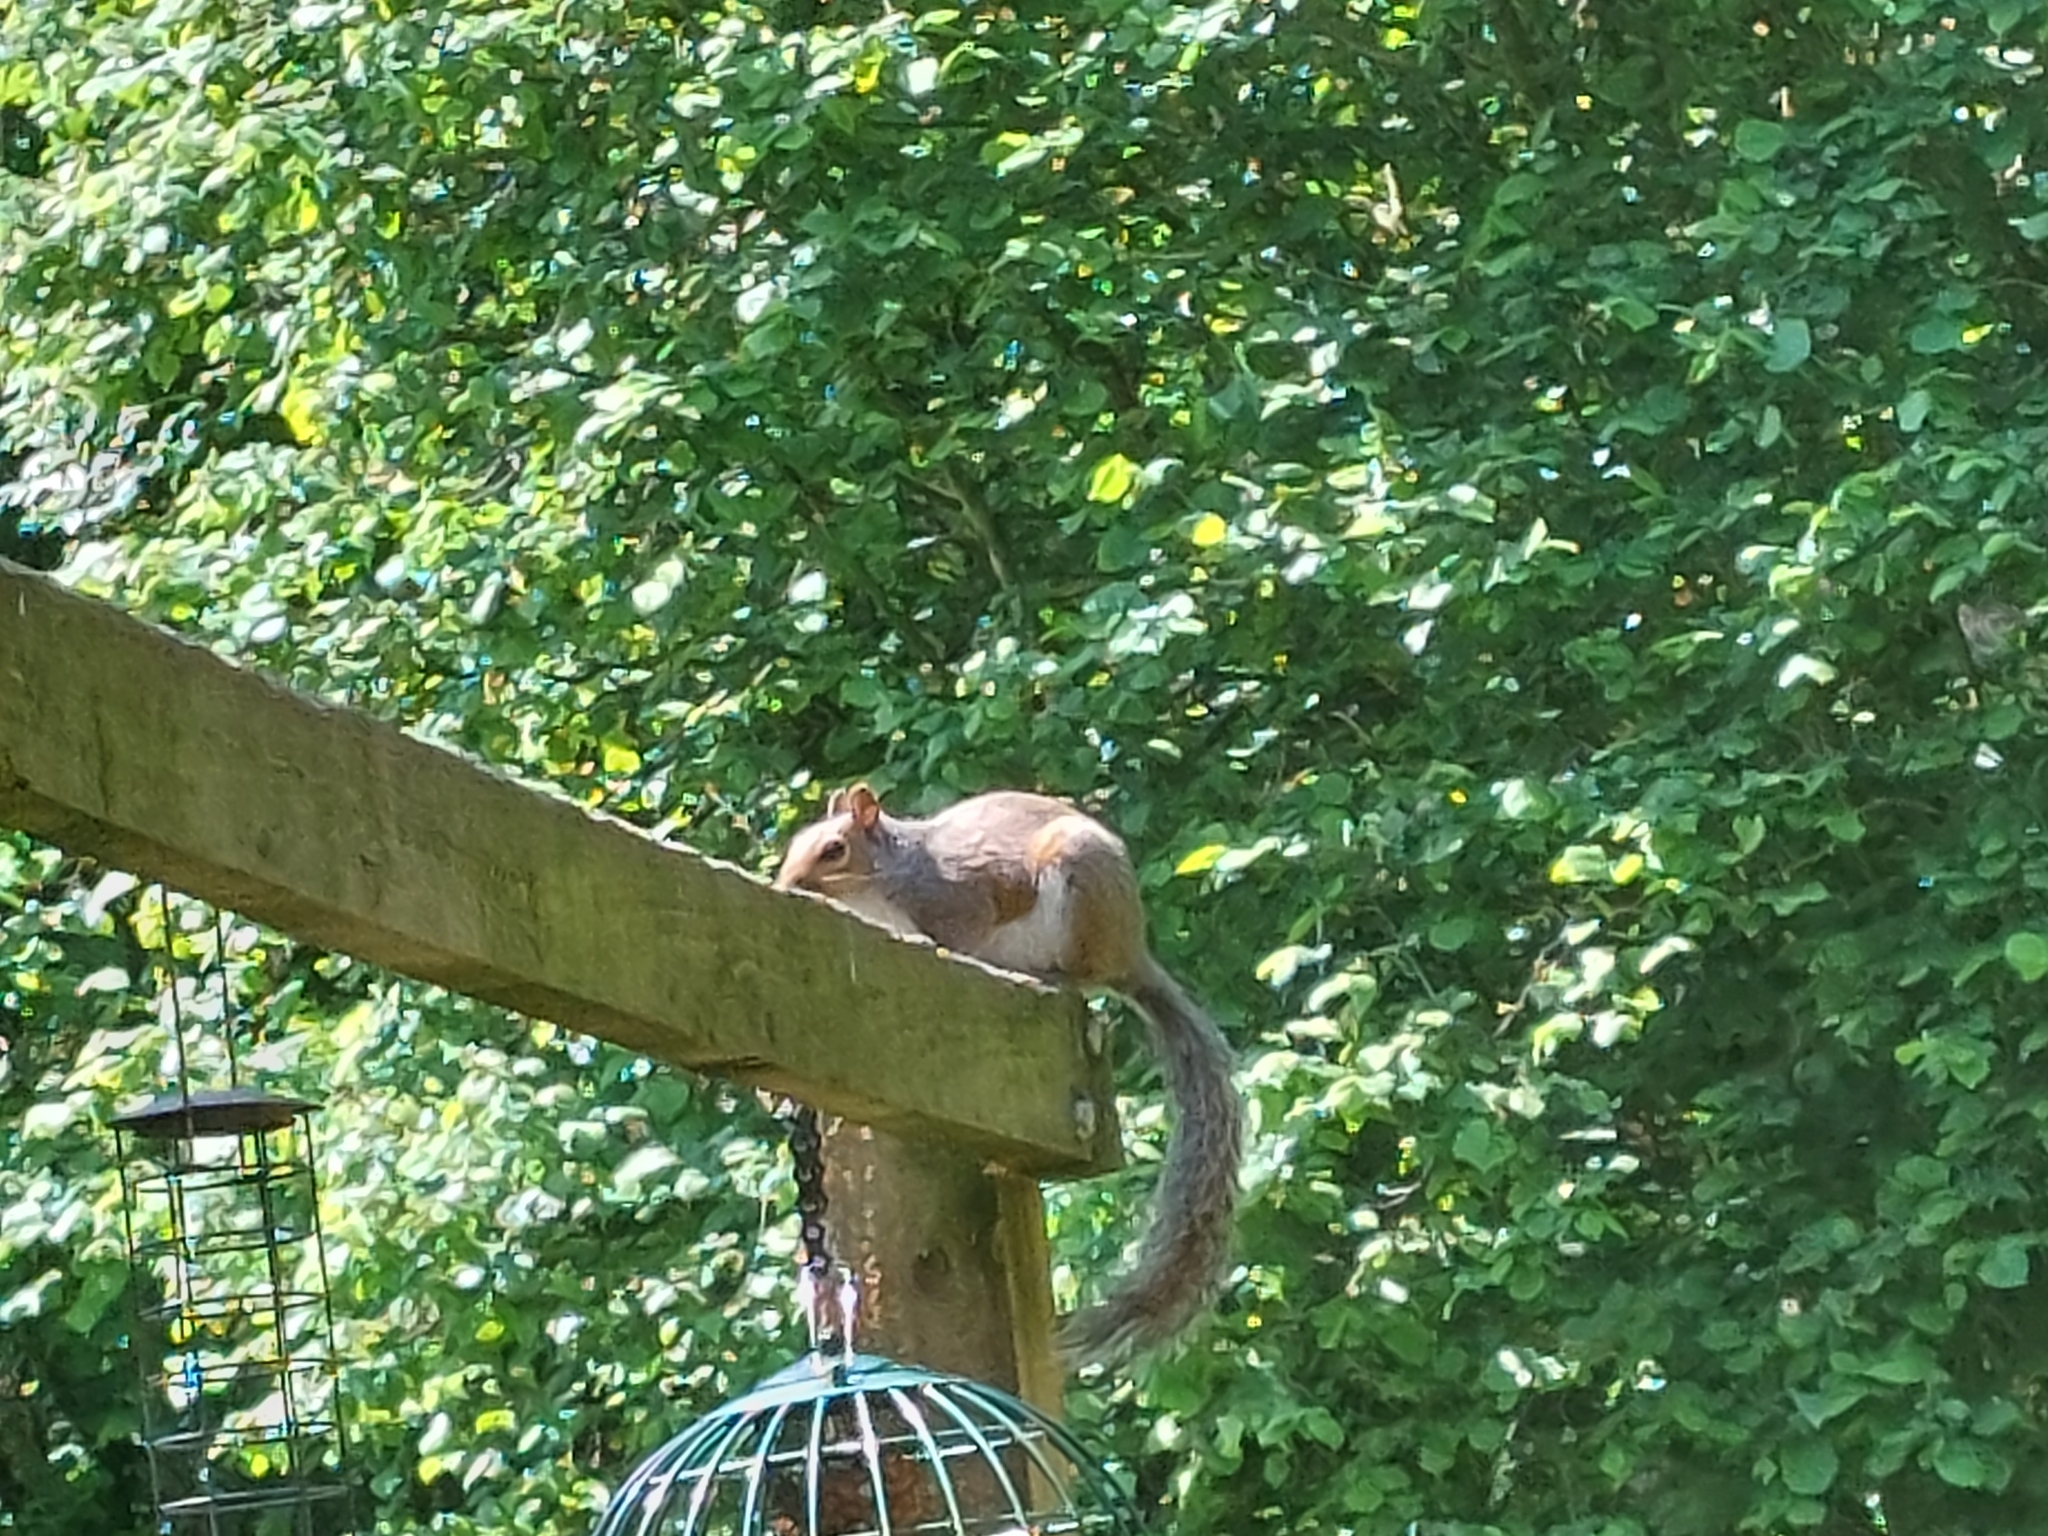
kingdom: Animalia
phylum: Chordata
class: Mammalia
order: Rodentia
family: Sciuridae
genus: Sciurus
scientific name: Sciurus carolinensis
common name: Eastern gray squirrel
